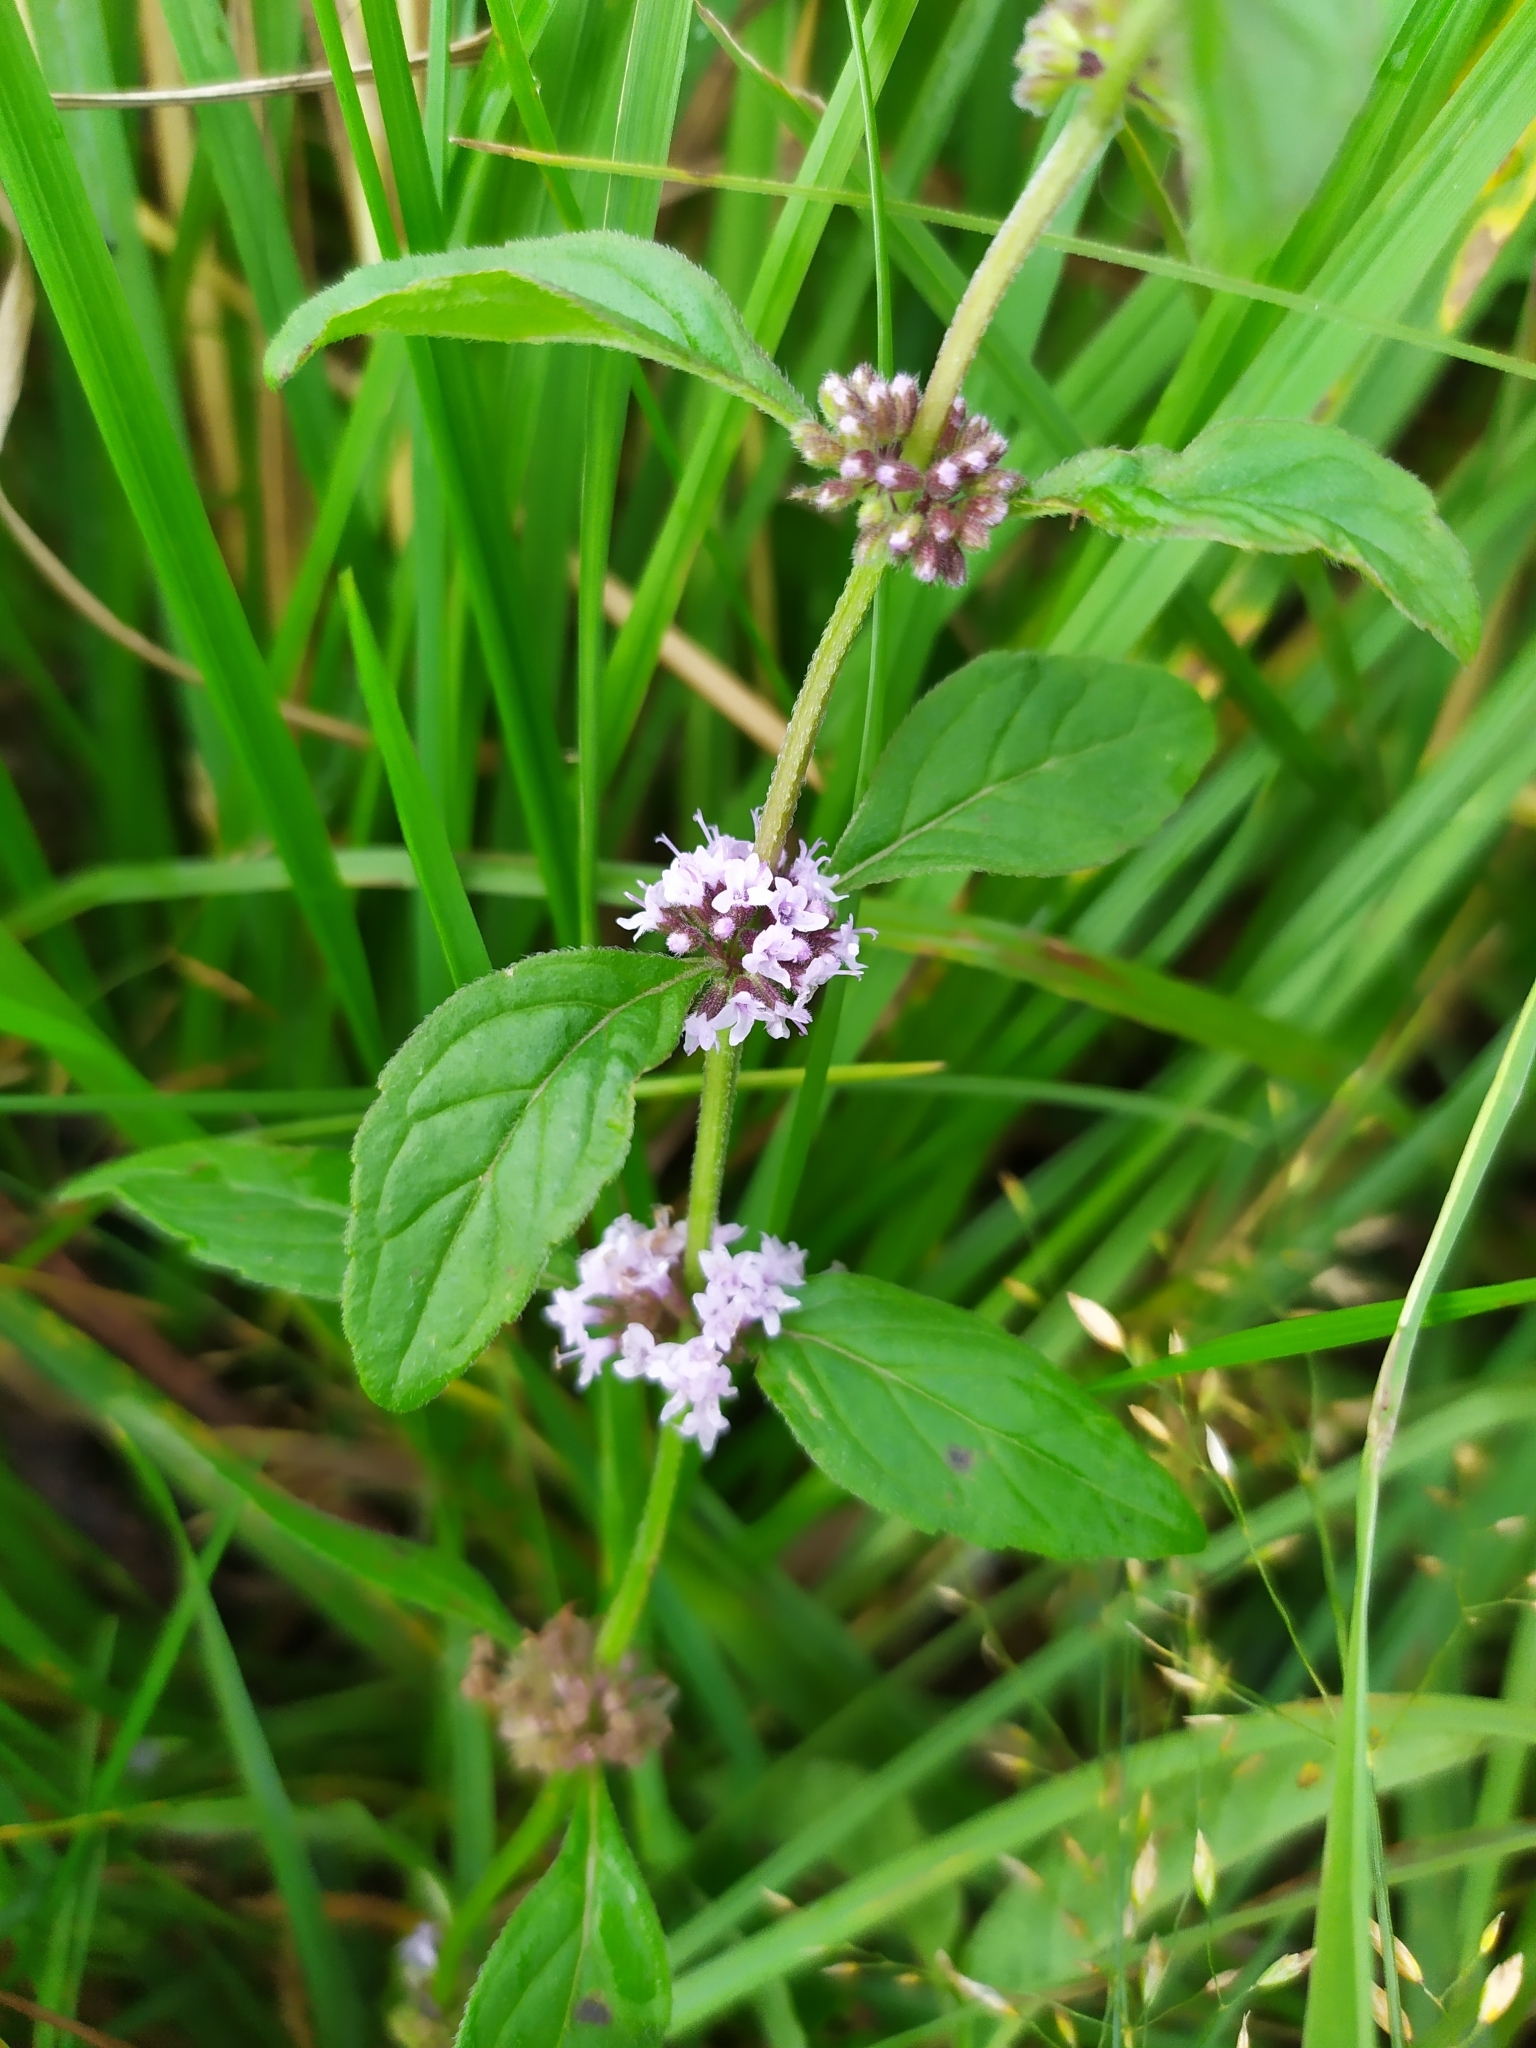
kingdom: Plantae
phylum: Tracheophyta
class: Magnoliopsida
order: Lamiales
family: Lamiaceae
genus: Mentha
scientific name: Mentha arvensis
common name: Corn mint
